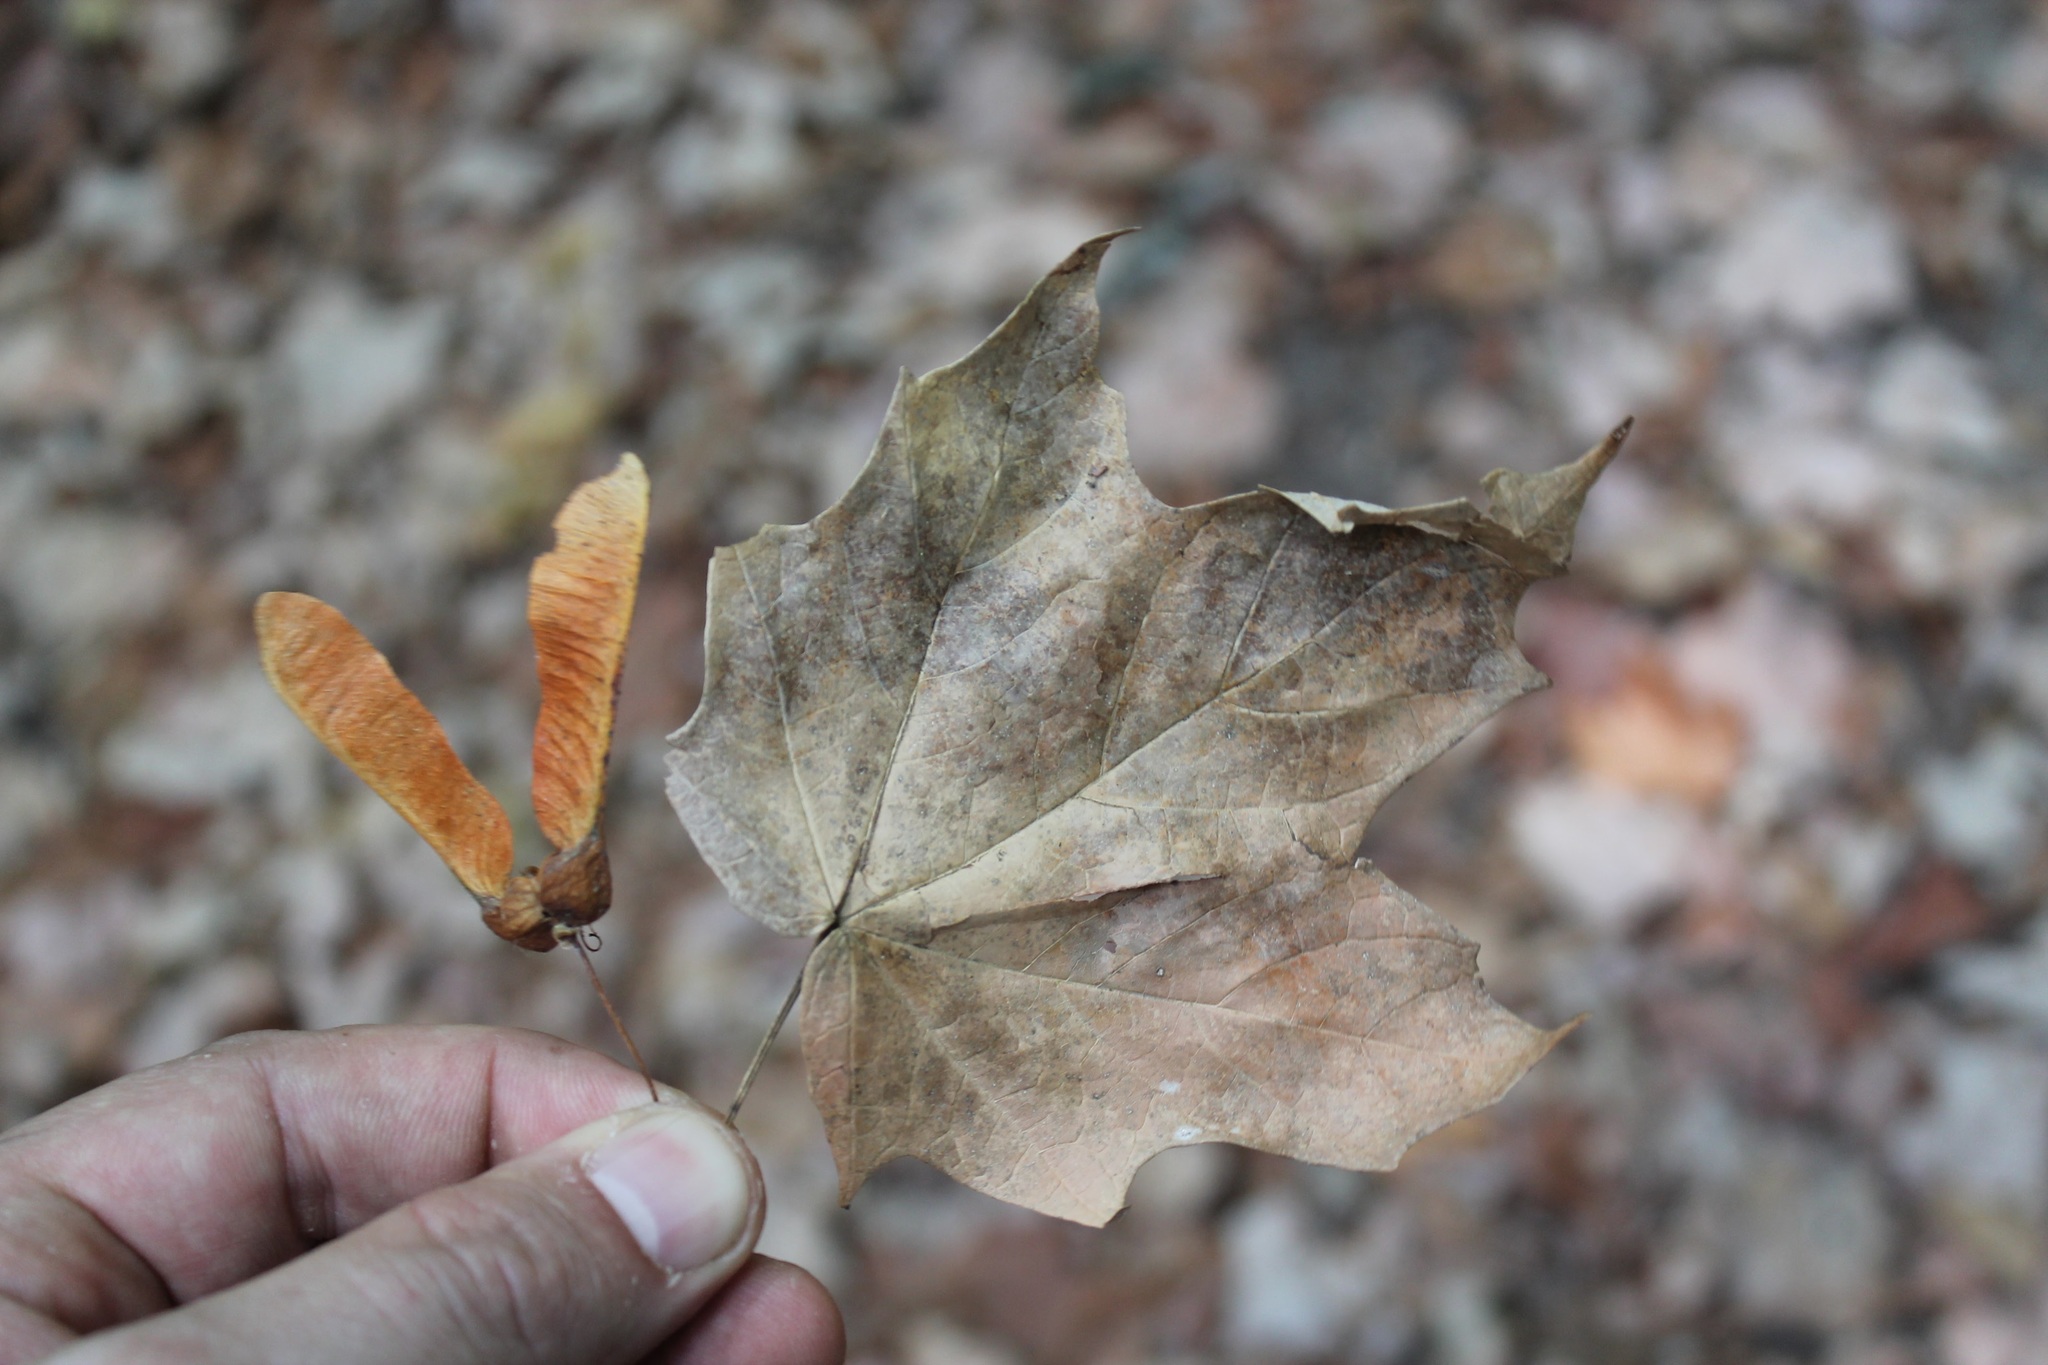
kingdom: Plantae
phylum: Tracheophyta
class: Magnoliopsida
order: Sapindales
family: Sapindaceae
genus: Acer
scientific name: Acer binzayedii
